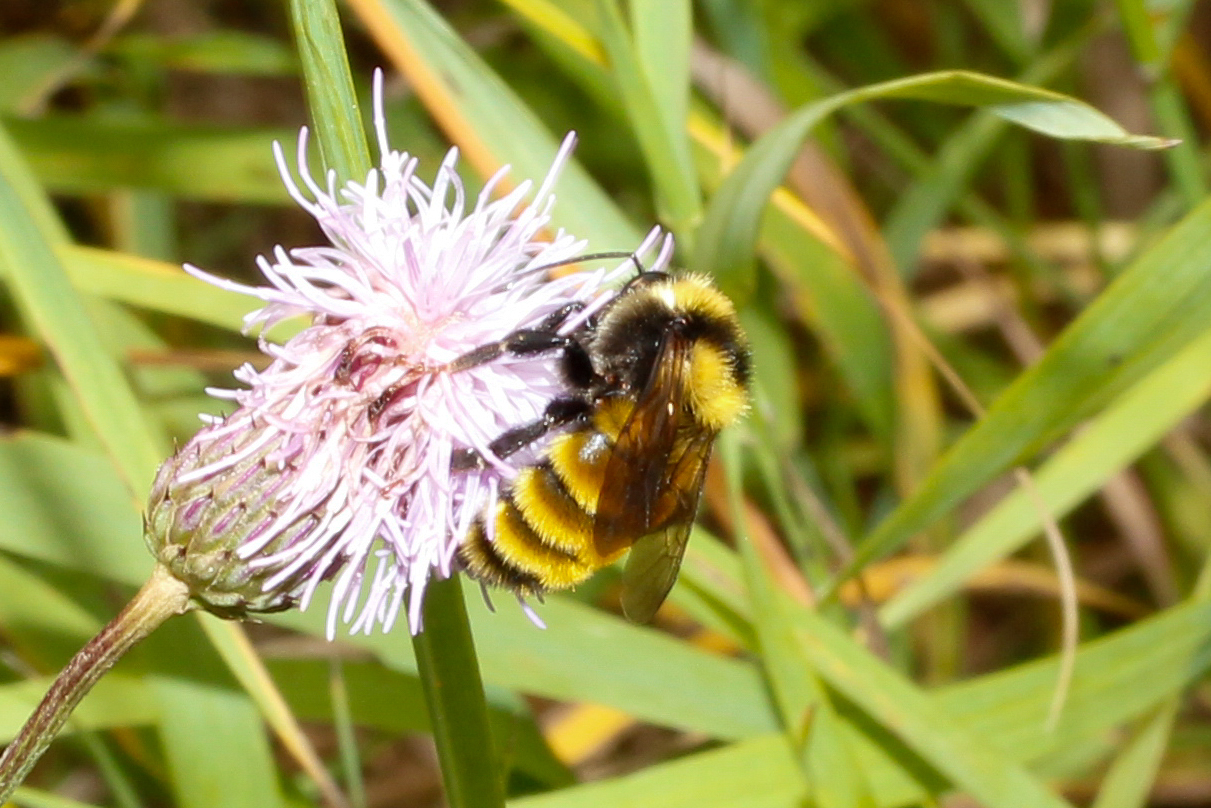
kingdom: Animalia
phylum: Arthropoda
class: Insecta
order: Hymenoptera
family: Apidae
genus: Bombus
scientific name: Bombus borealis
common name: Northern amber bumble bee
